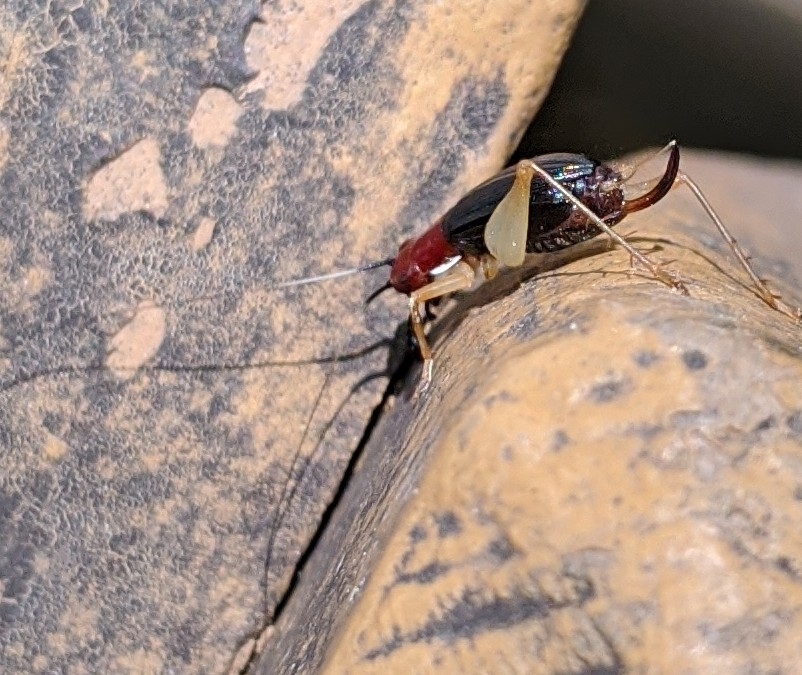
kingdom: Animalia
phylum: Arthropoda
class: Insecta
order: Orthoptera
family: Trigonidiidae
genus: Phyllopalpus
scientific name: Phyllopalpus pulchellus
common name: Handsome trig
